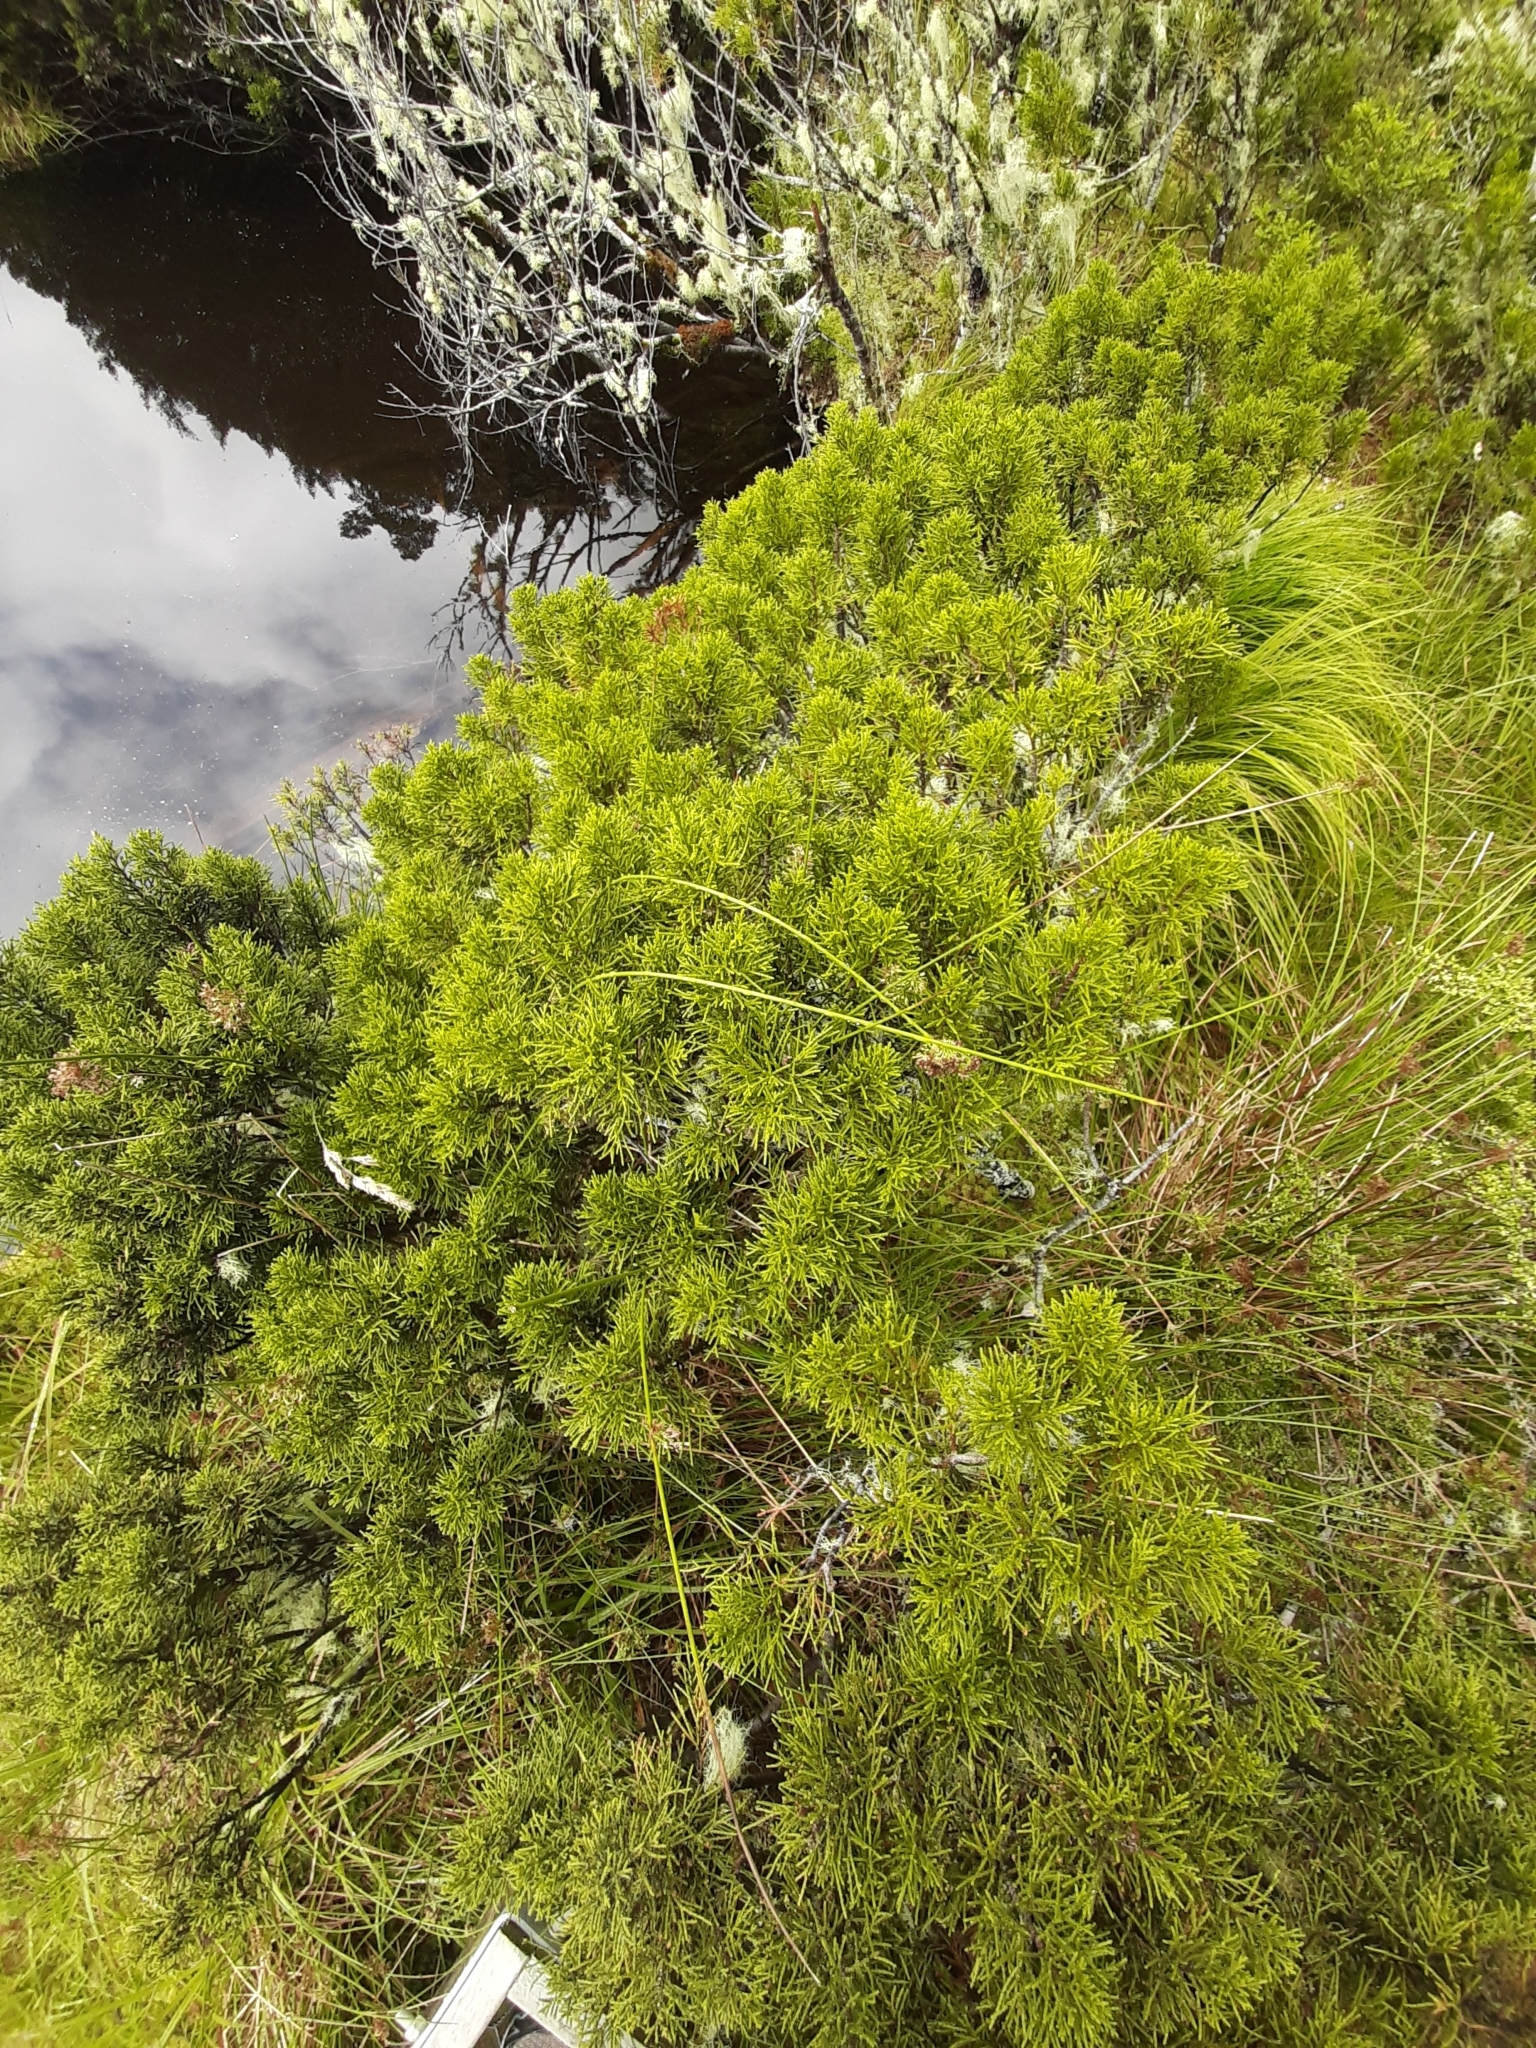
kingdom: Plantae
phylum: Tracheophyta
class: Pinopsida
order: Pinales
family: Podocarpaceae
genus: Halocarpus
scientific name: Halocarpus bidwillii
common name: Bog pine
